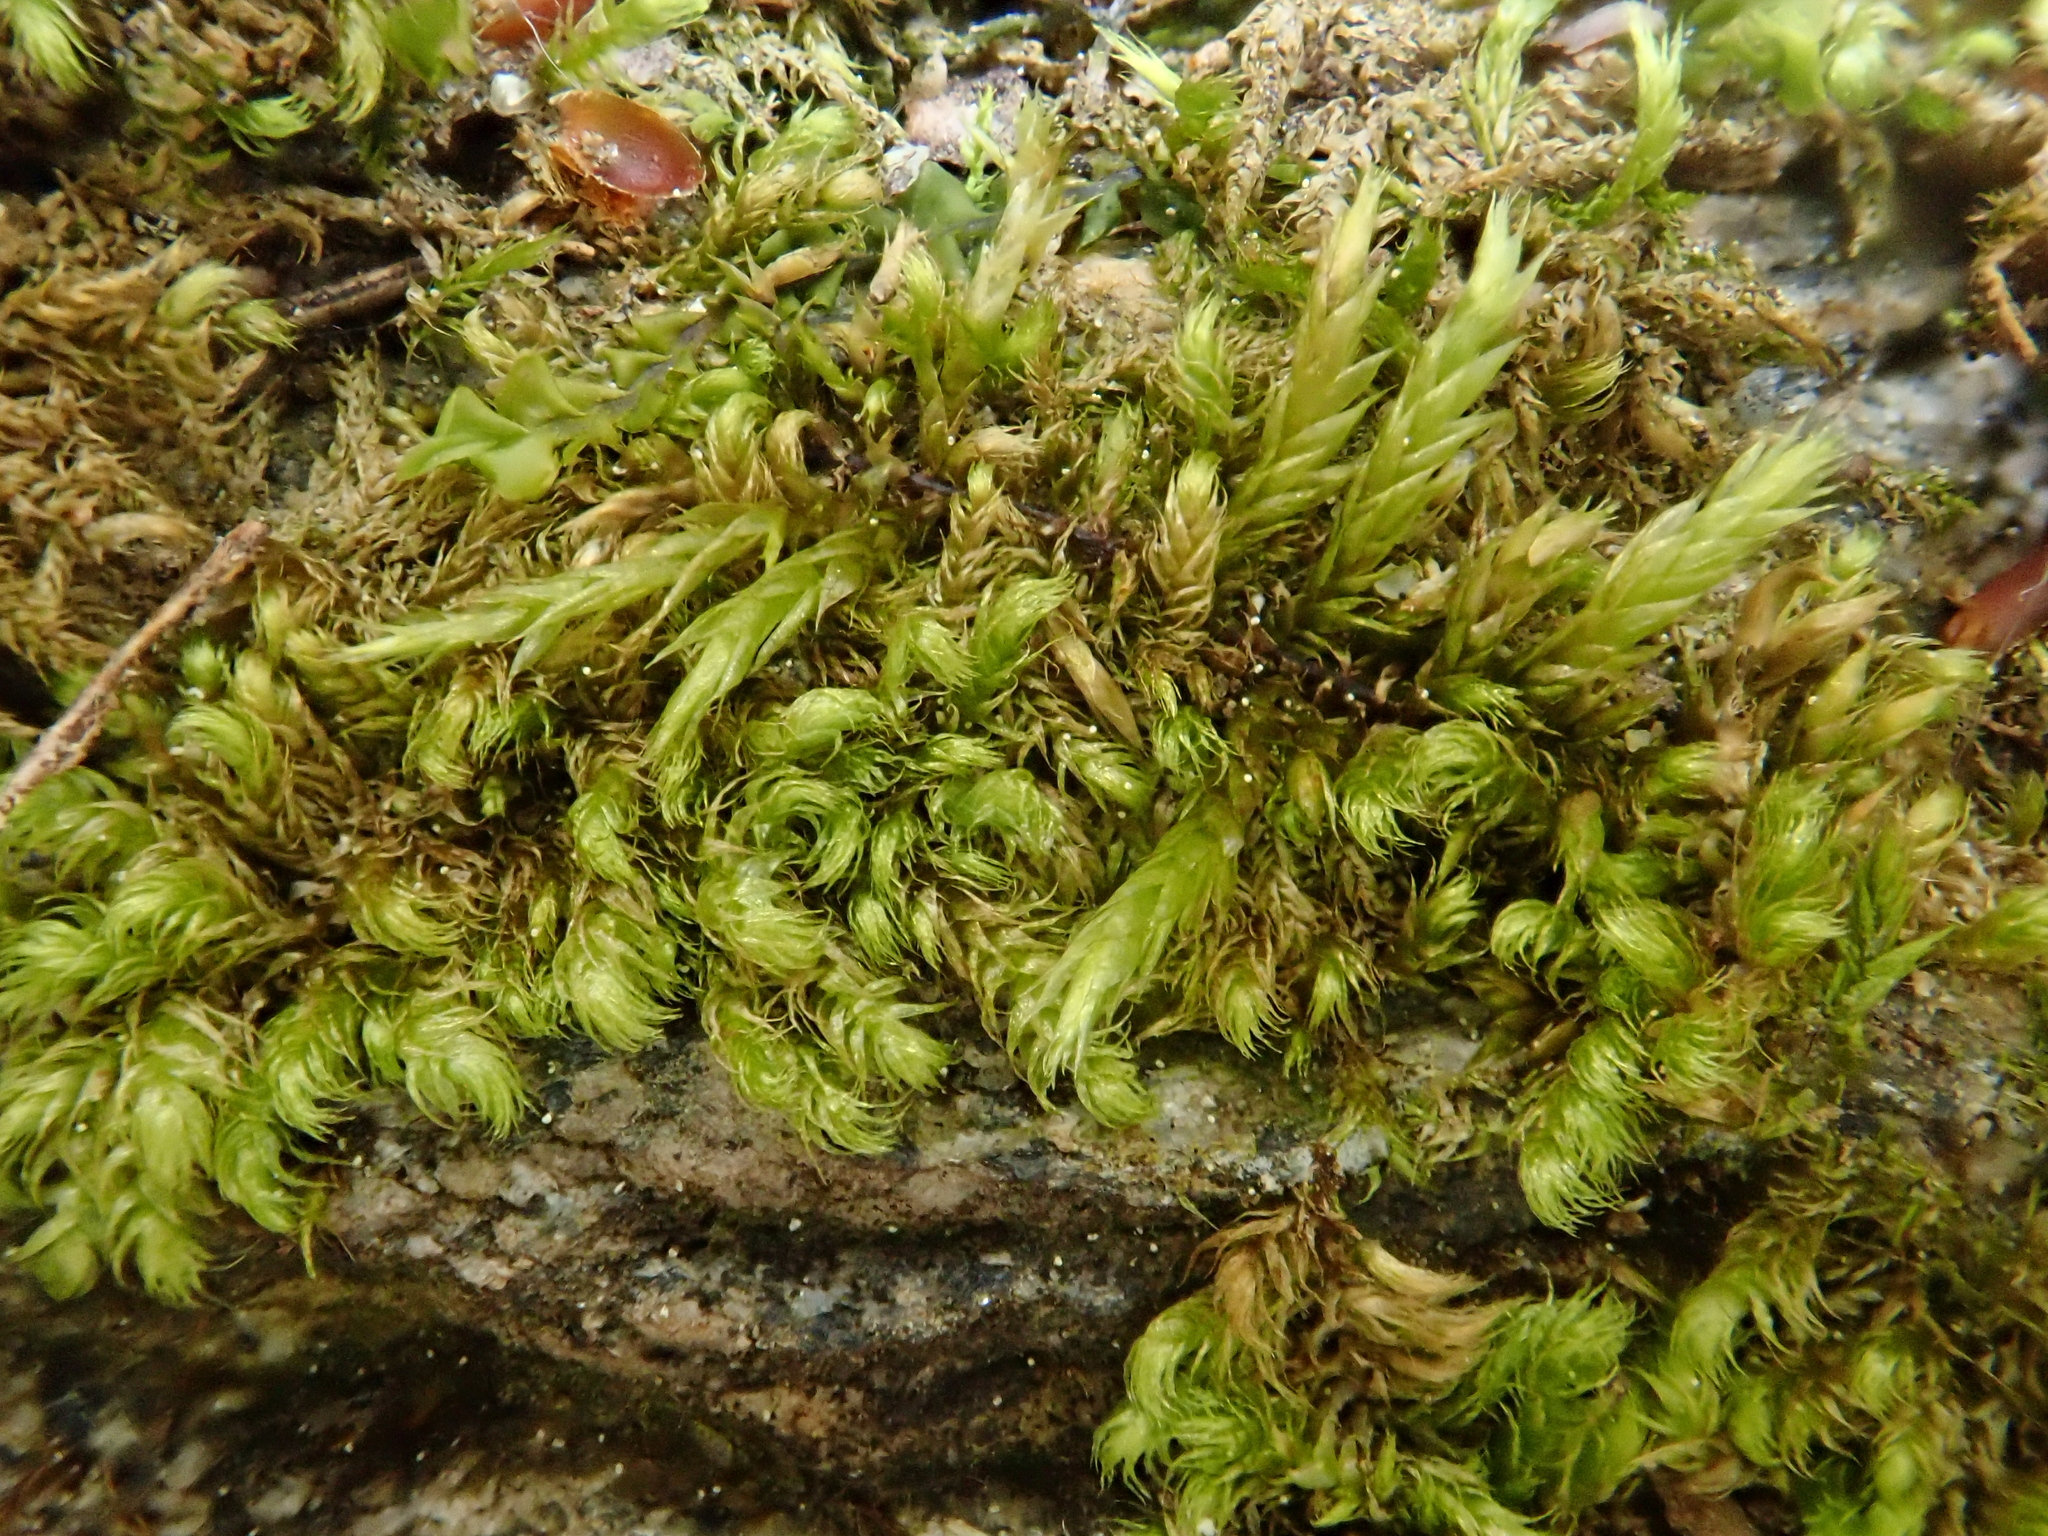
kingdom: Plantae
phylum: Bryophyta
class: Bryopsida
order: Hypnales
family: Brachytheciaceae
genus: Sciuro-hypnum
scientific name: Sciuro-hypnum plumosum
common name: Rusty feather-moss
